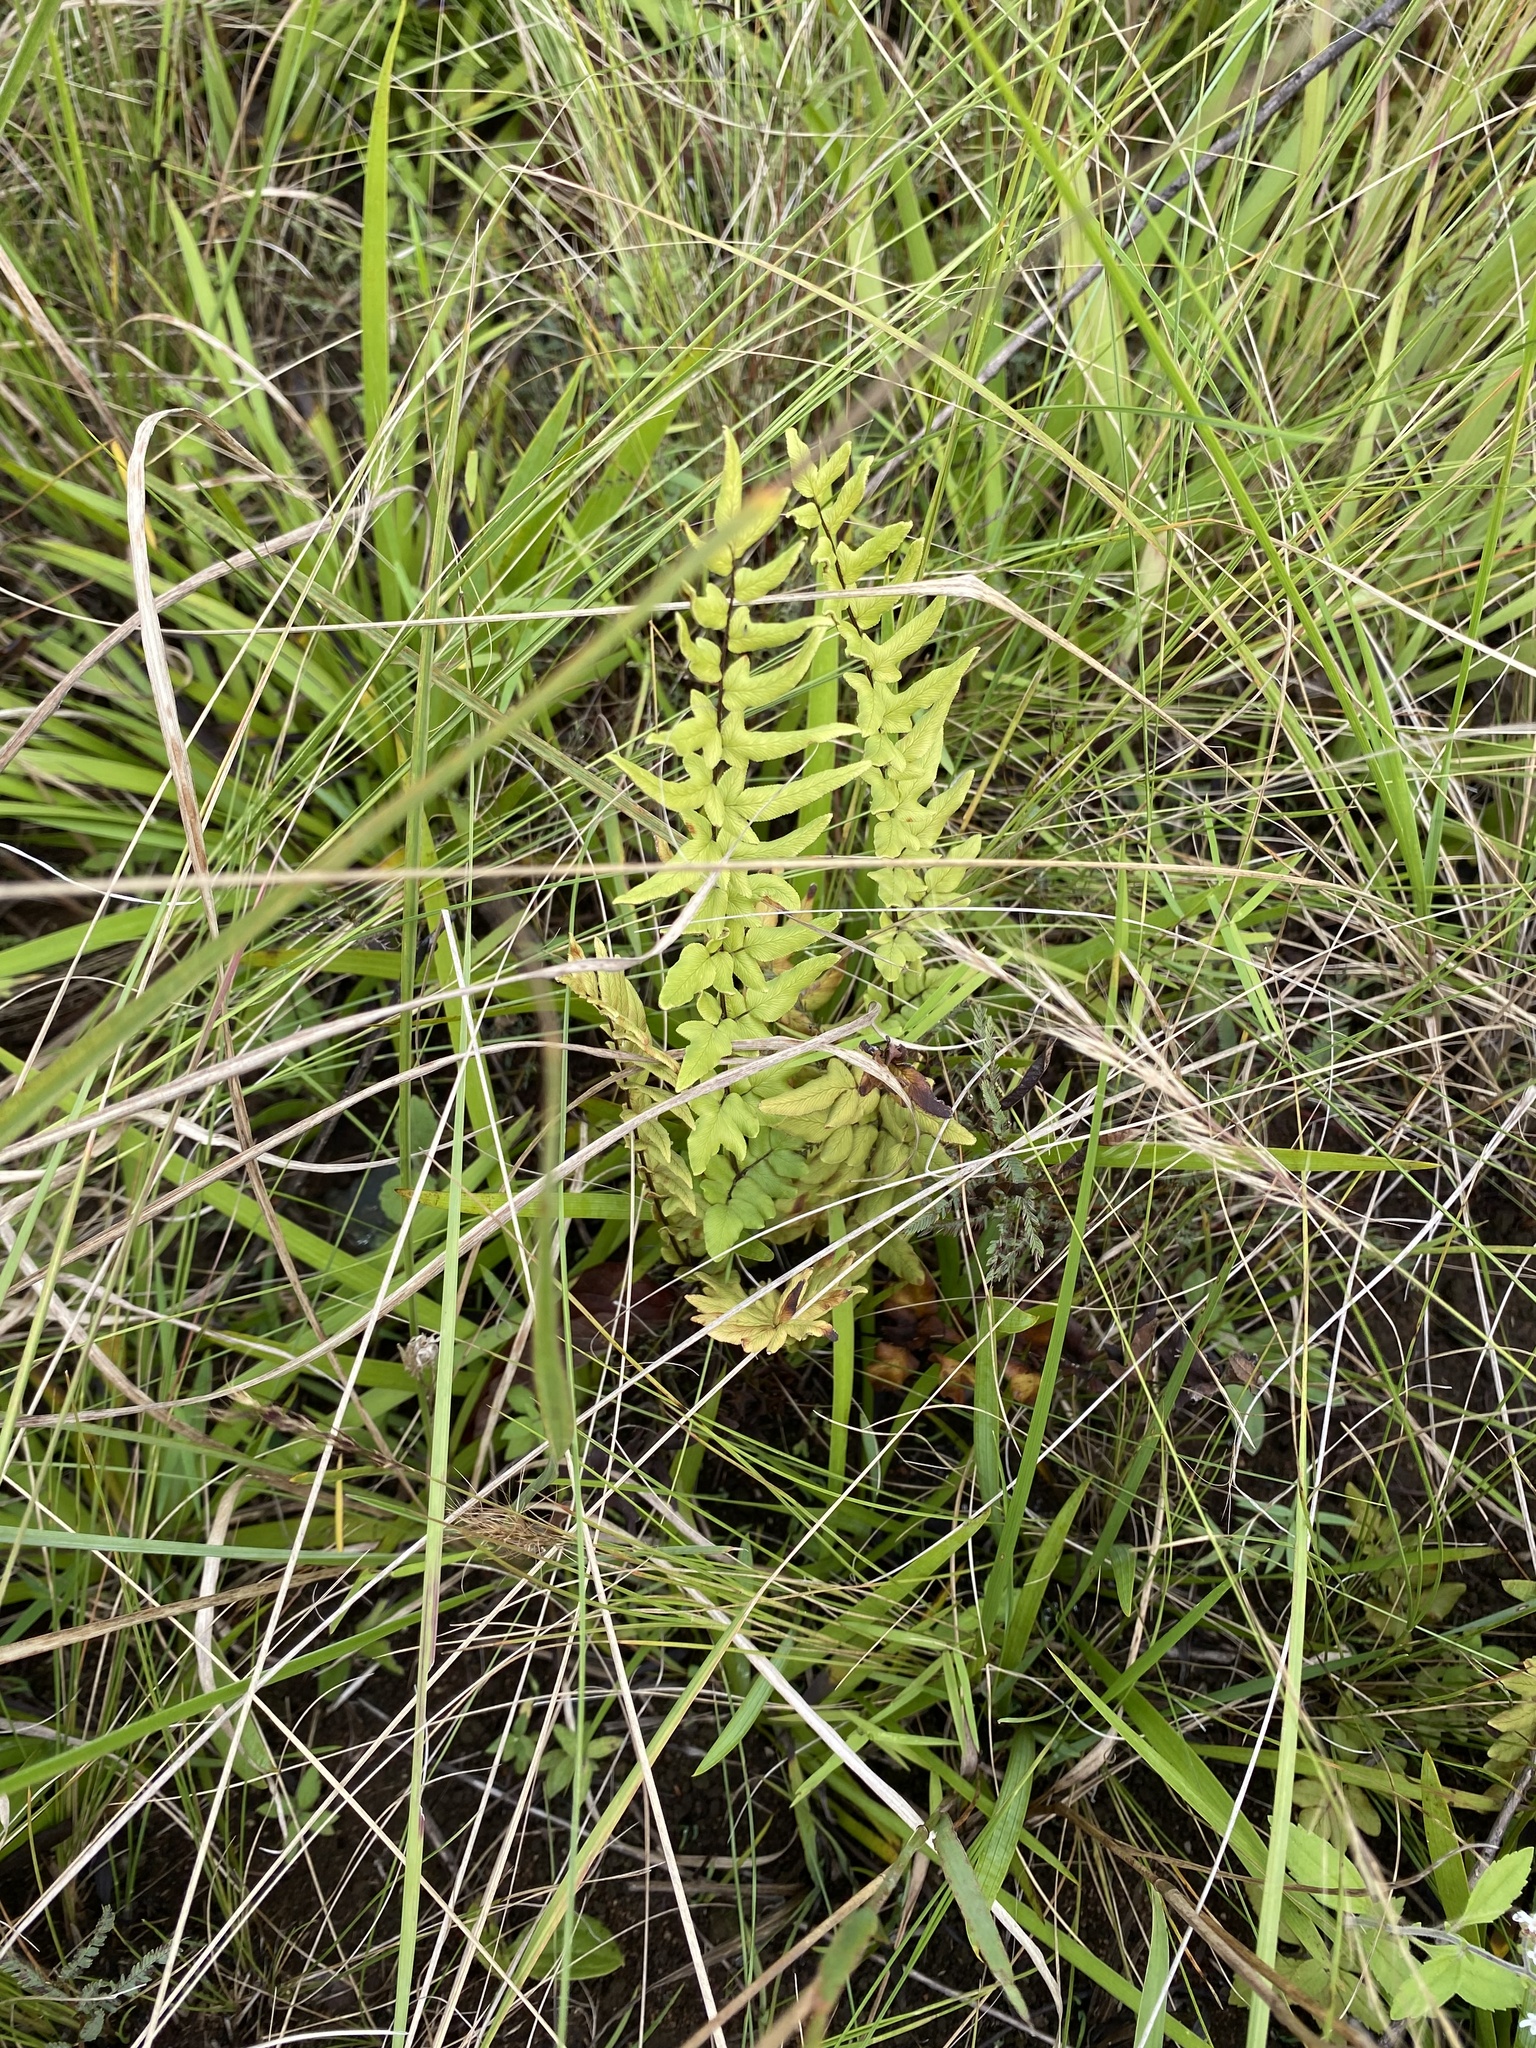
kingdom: Plantae
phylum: Tracheophyta
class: Polypodiopsida
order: Polypodiales
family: Pteridaceae
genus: Cheilanthes
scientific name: Cheilanthes viridis
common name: Green cliffbrake
